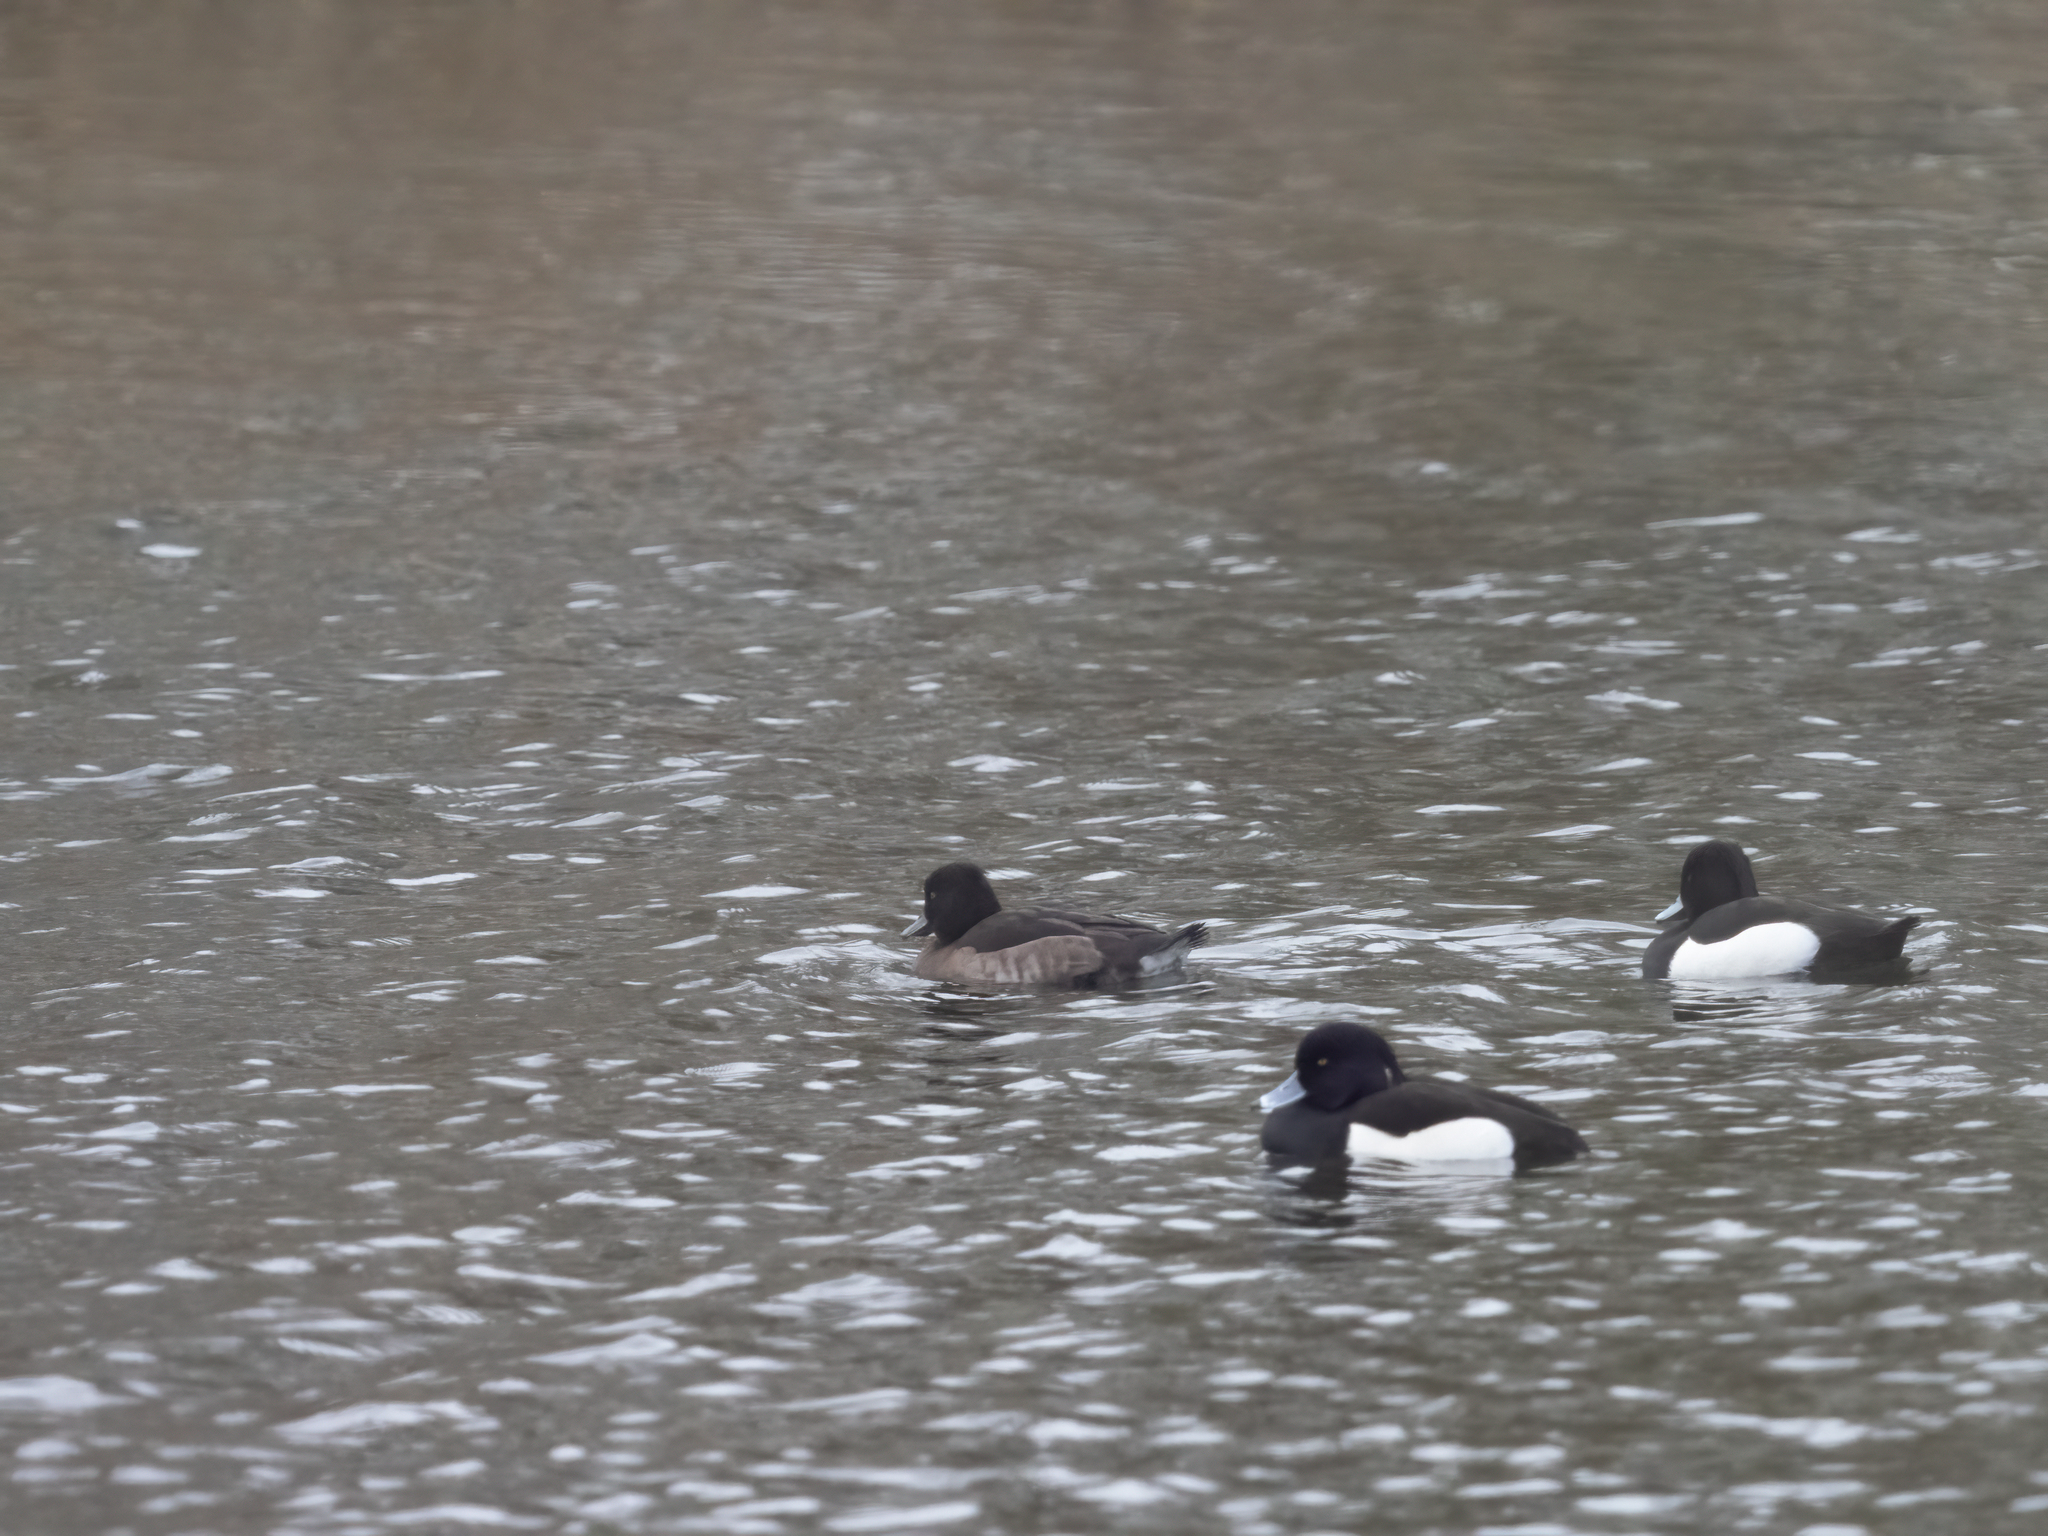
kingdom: Animalia
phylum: Chordata
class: Aves
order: Anseriformes
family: Anatidae
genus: Aythya
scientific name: Aythya fuligula
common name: Tufted duck
